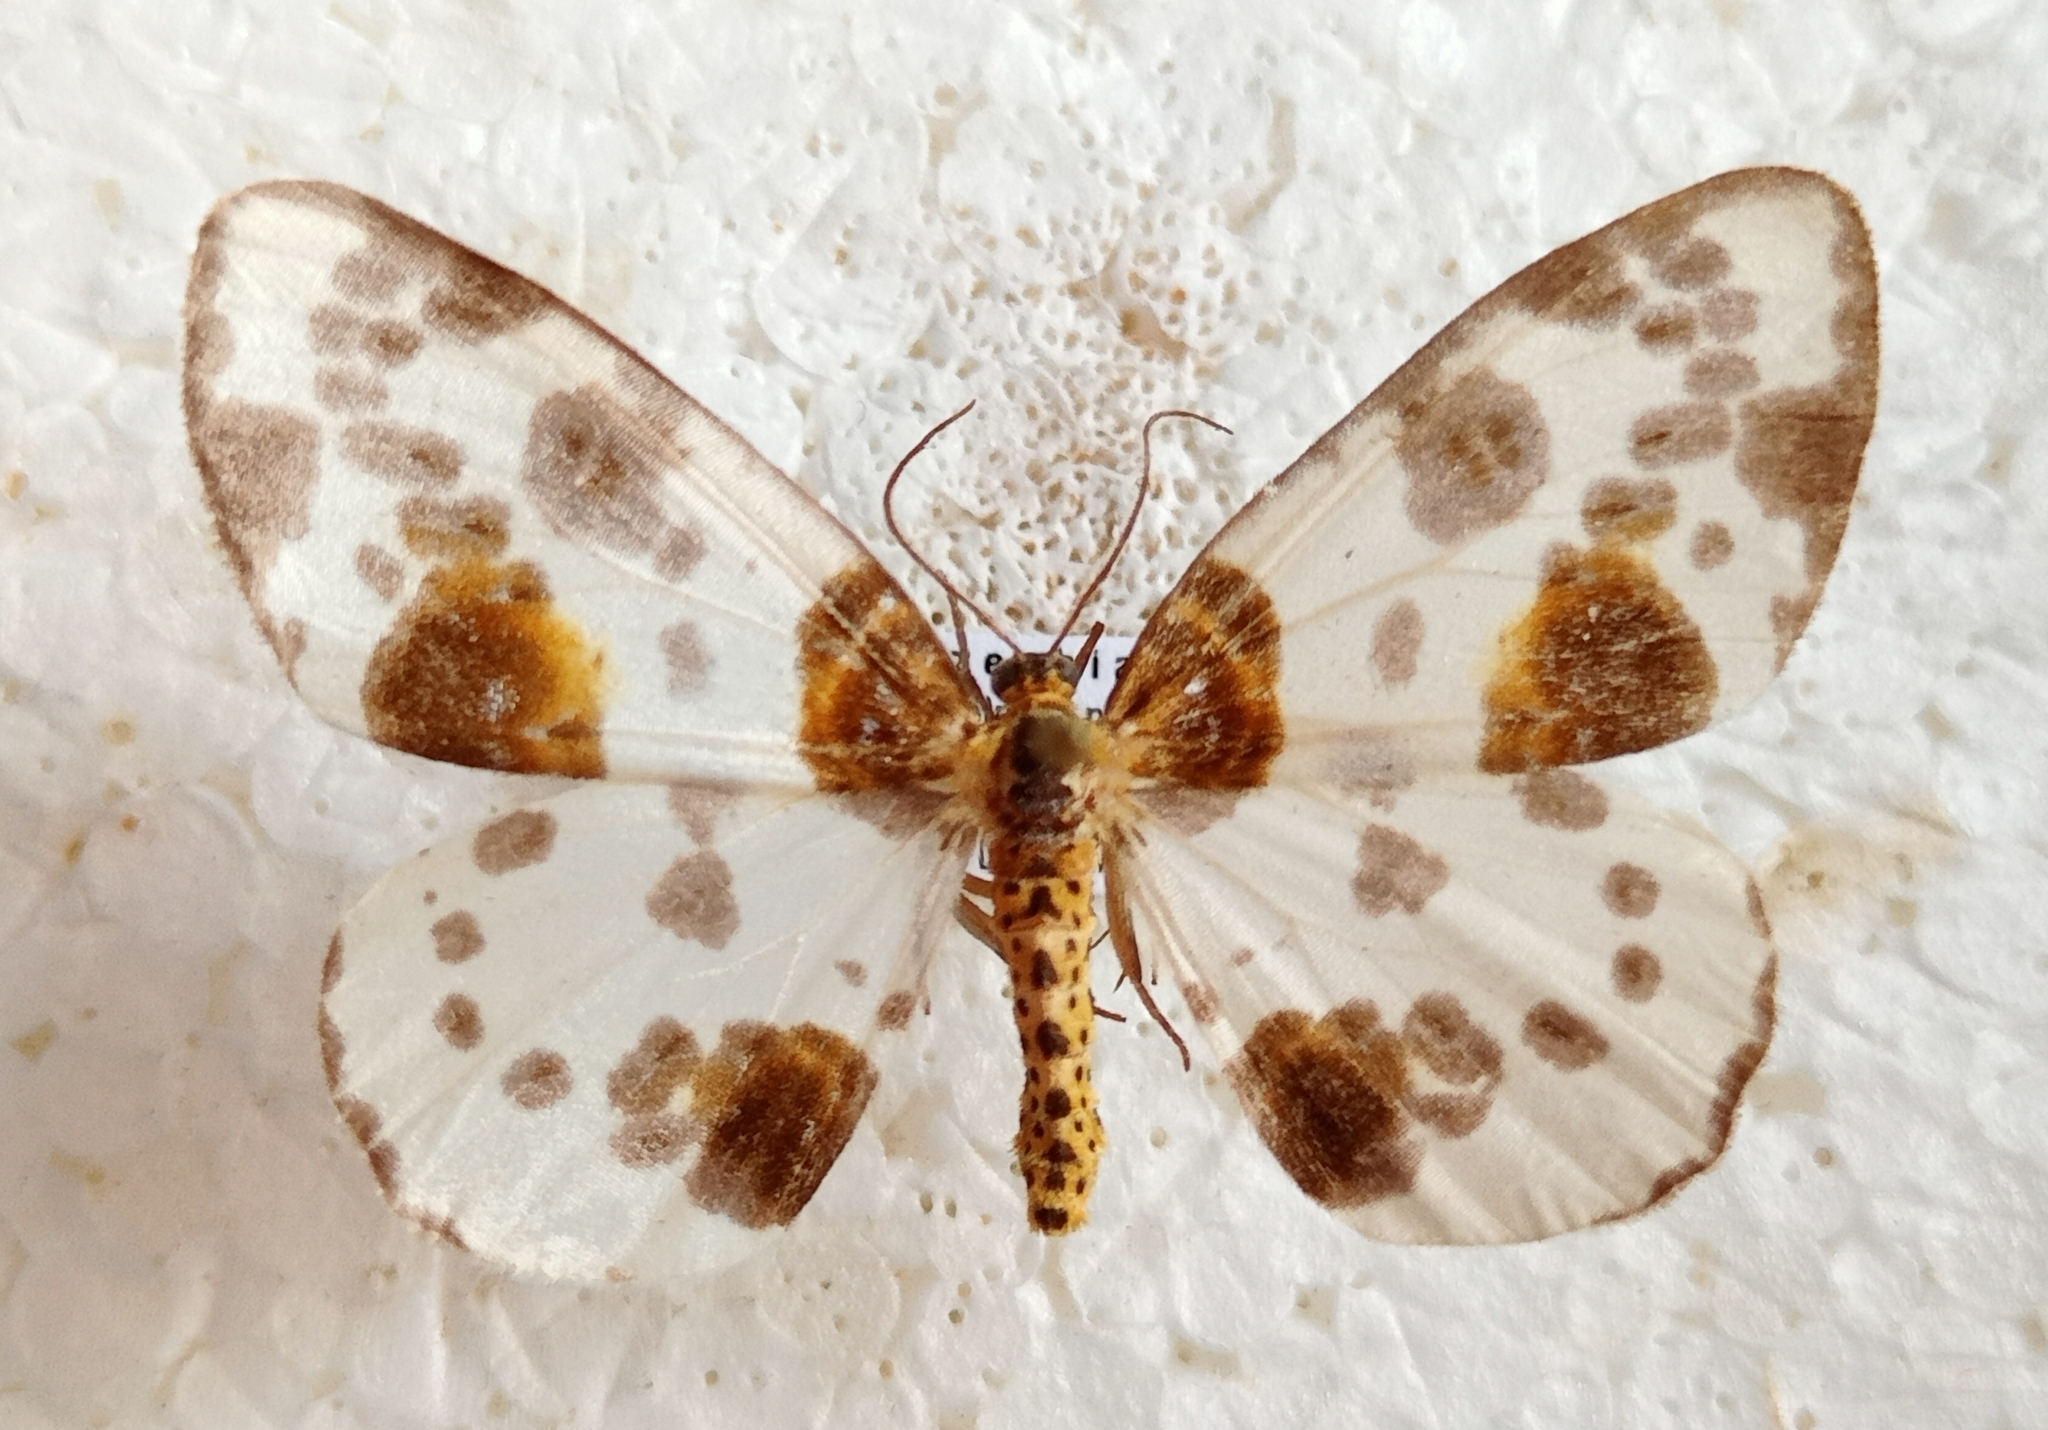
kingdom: Animalia
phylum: Arthropoda
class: Insecta
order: Lepidoptera
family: Geometridae
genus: Abraxas
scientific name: Abraxas sylvata
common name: Clouded magpie
